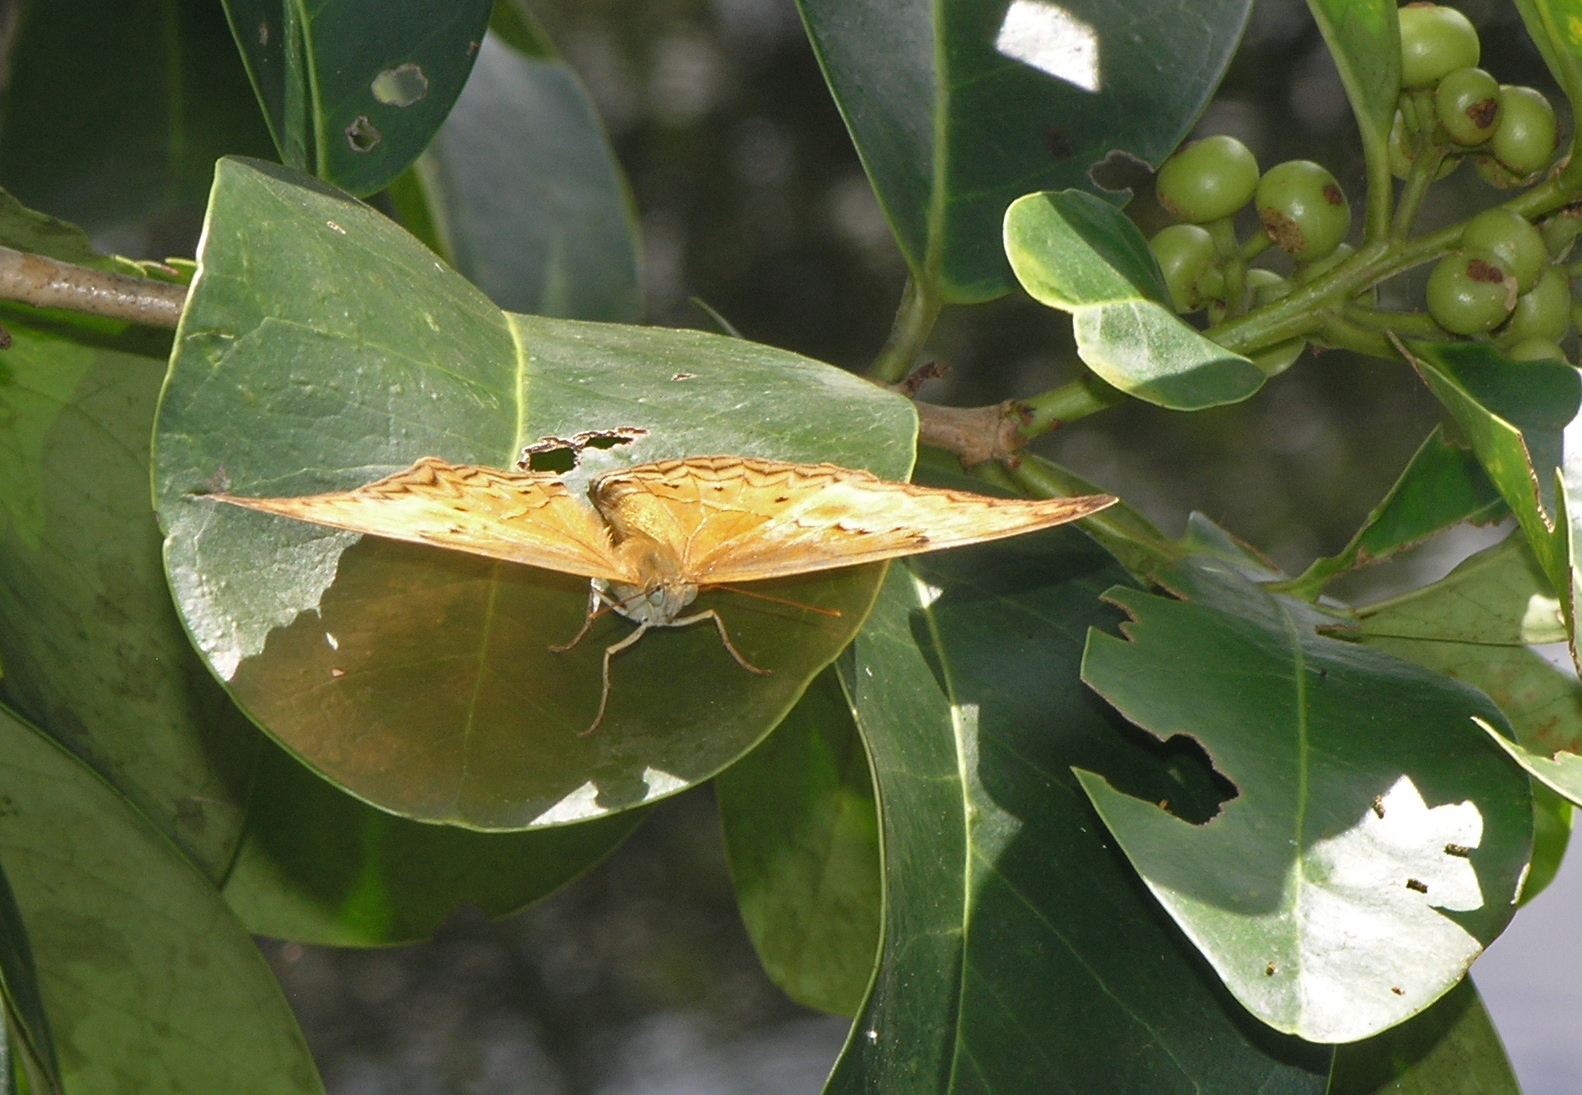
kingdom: Animalia
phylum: Arthropoda
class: Insecta
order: Lepidoptera
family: Nymphalidae
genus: Cirrochroa
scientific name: Cirrochroa tyche
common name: Common yeoman
